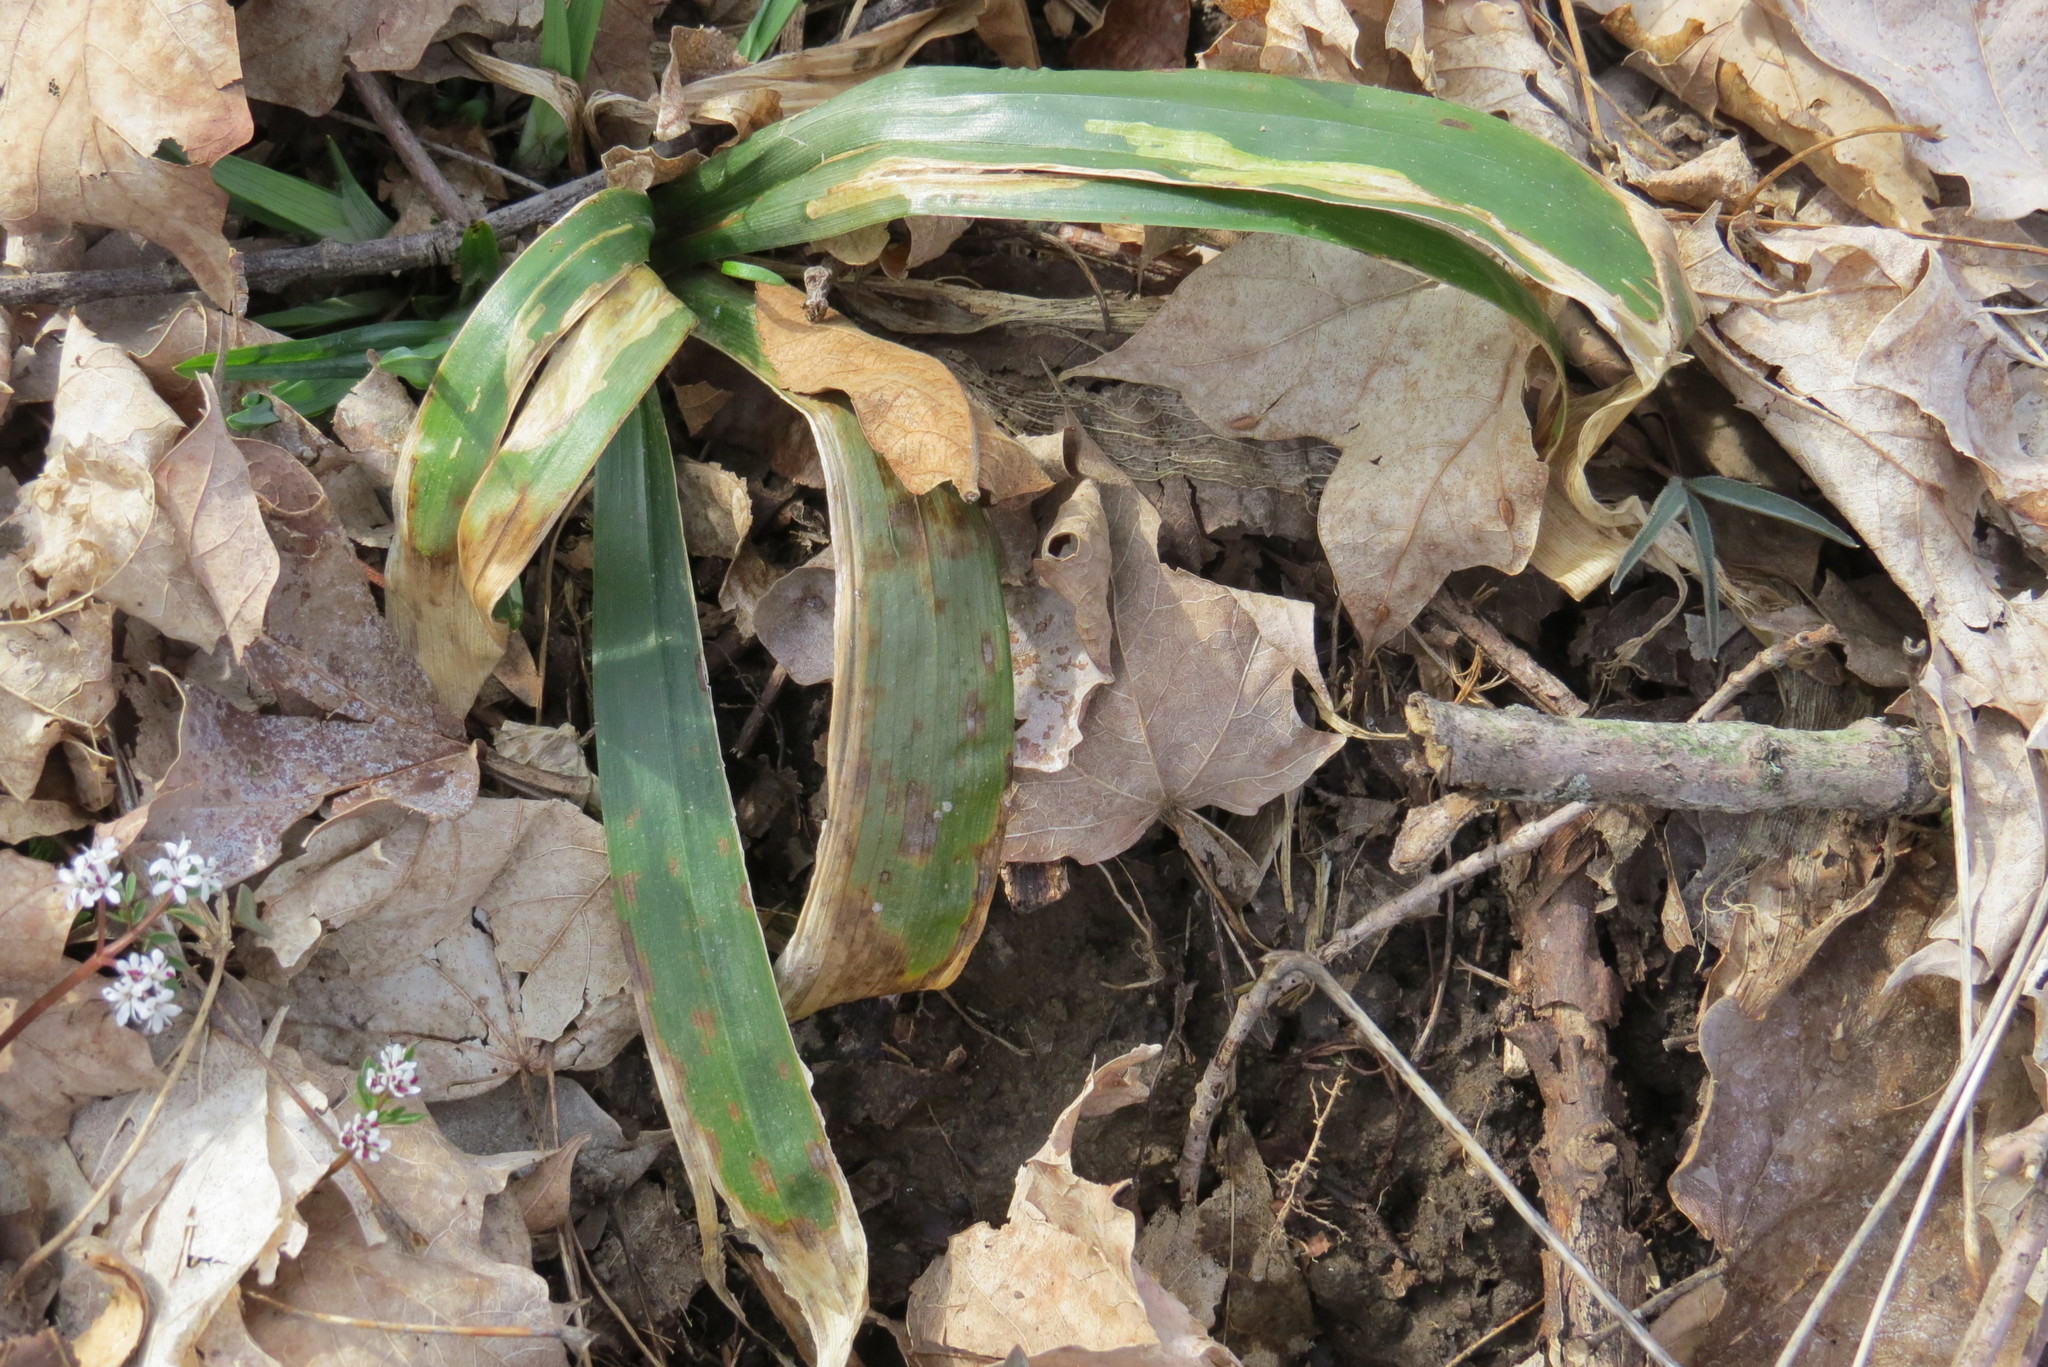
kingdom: Plantae
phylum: Tracheophyta
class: Liliopsida
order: Poales
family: Cyperaceae
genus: Carex
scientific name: Carex albursina
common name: Blunt-scale wood sedge
